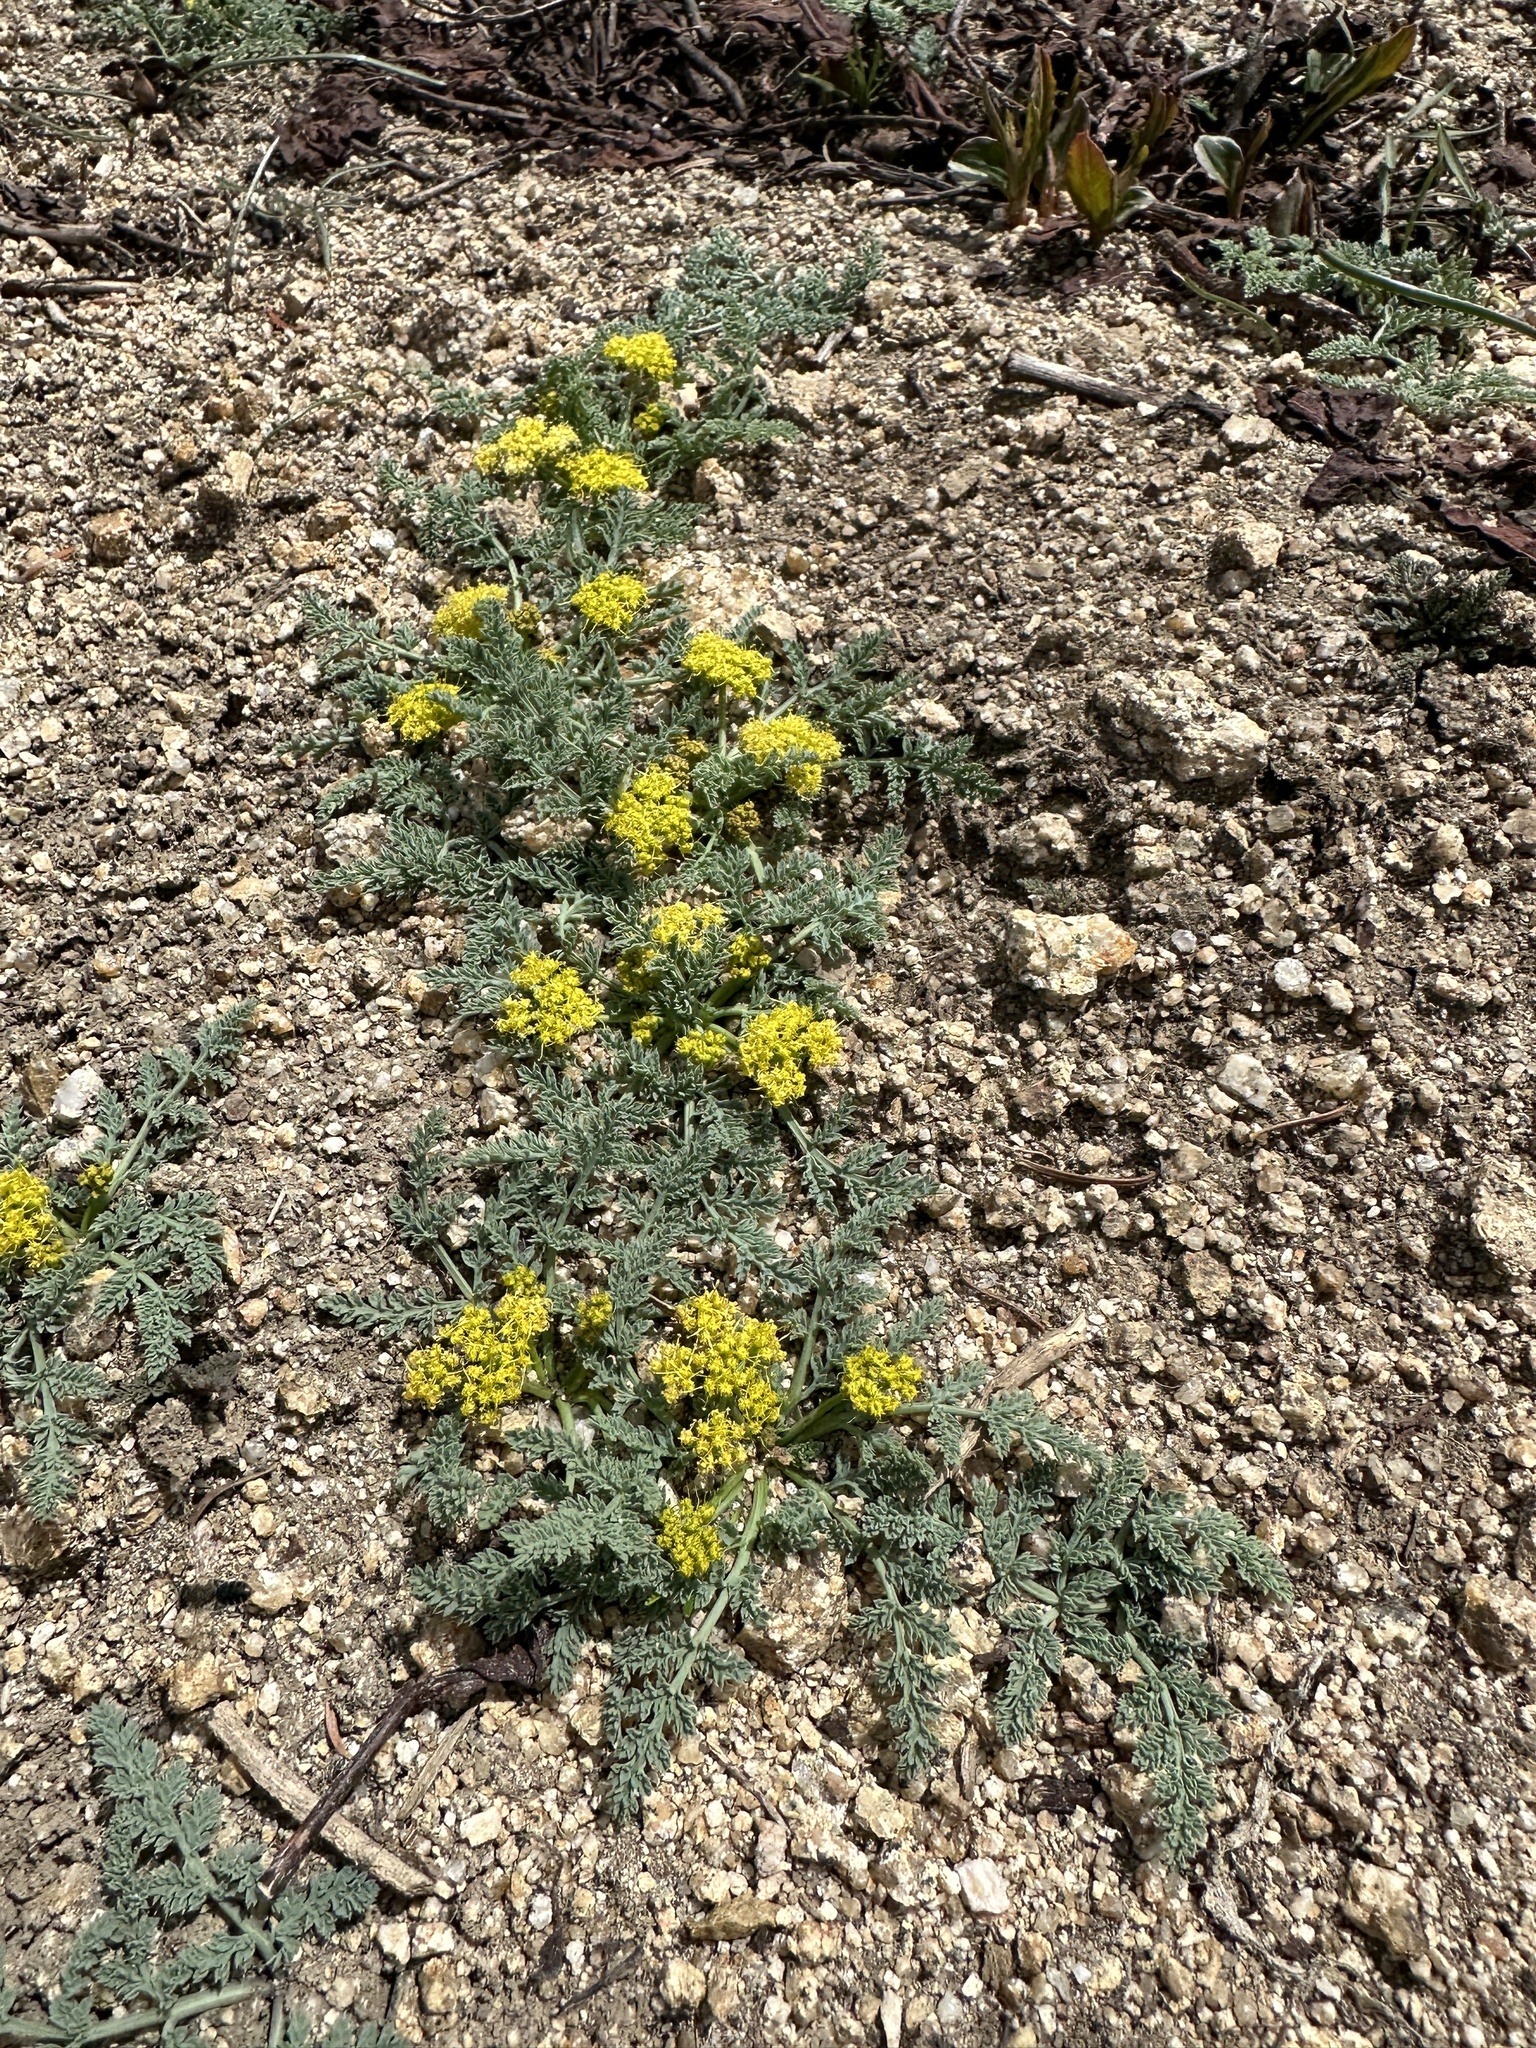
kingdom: Plantae
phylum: Tracheophyta
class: Magnoliopsida
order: Apiales
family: Apiaceae
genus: Aulospermum
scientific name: Aulospermum glaucum
